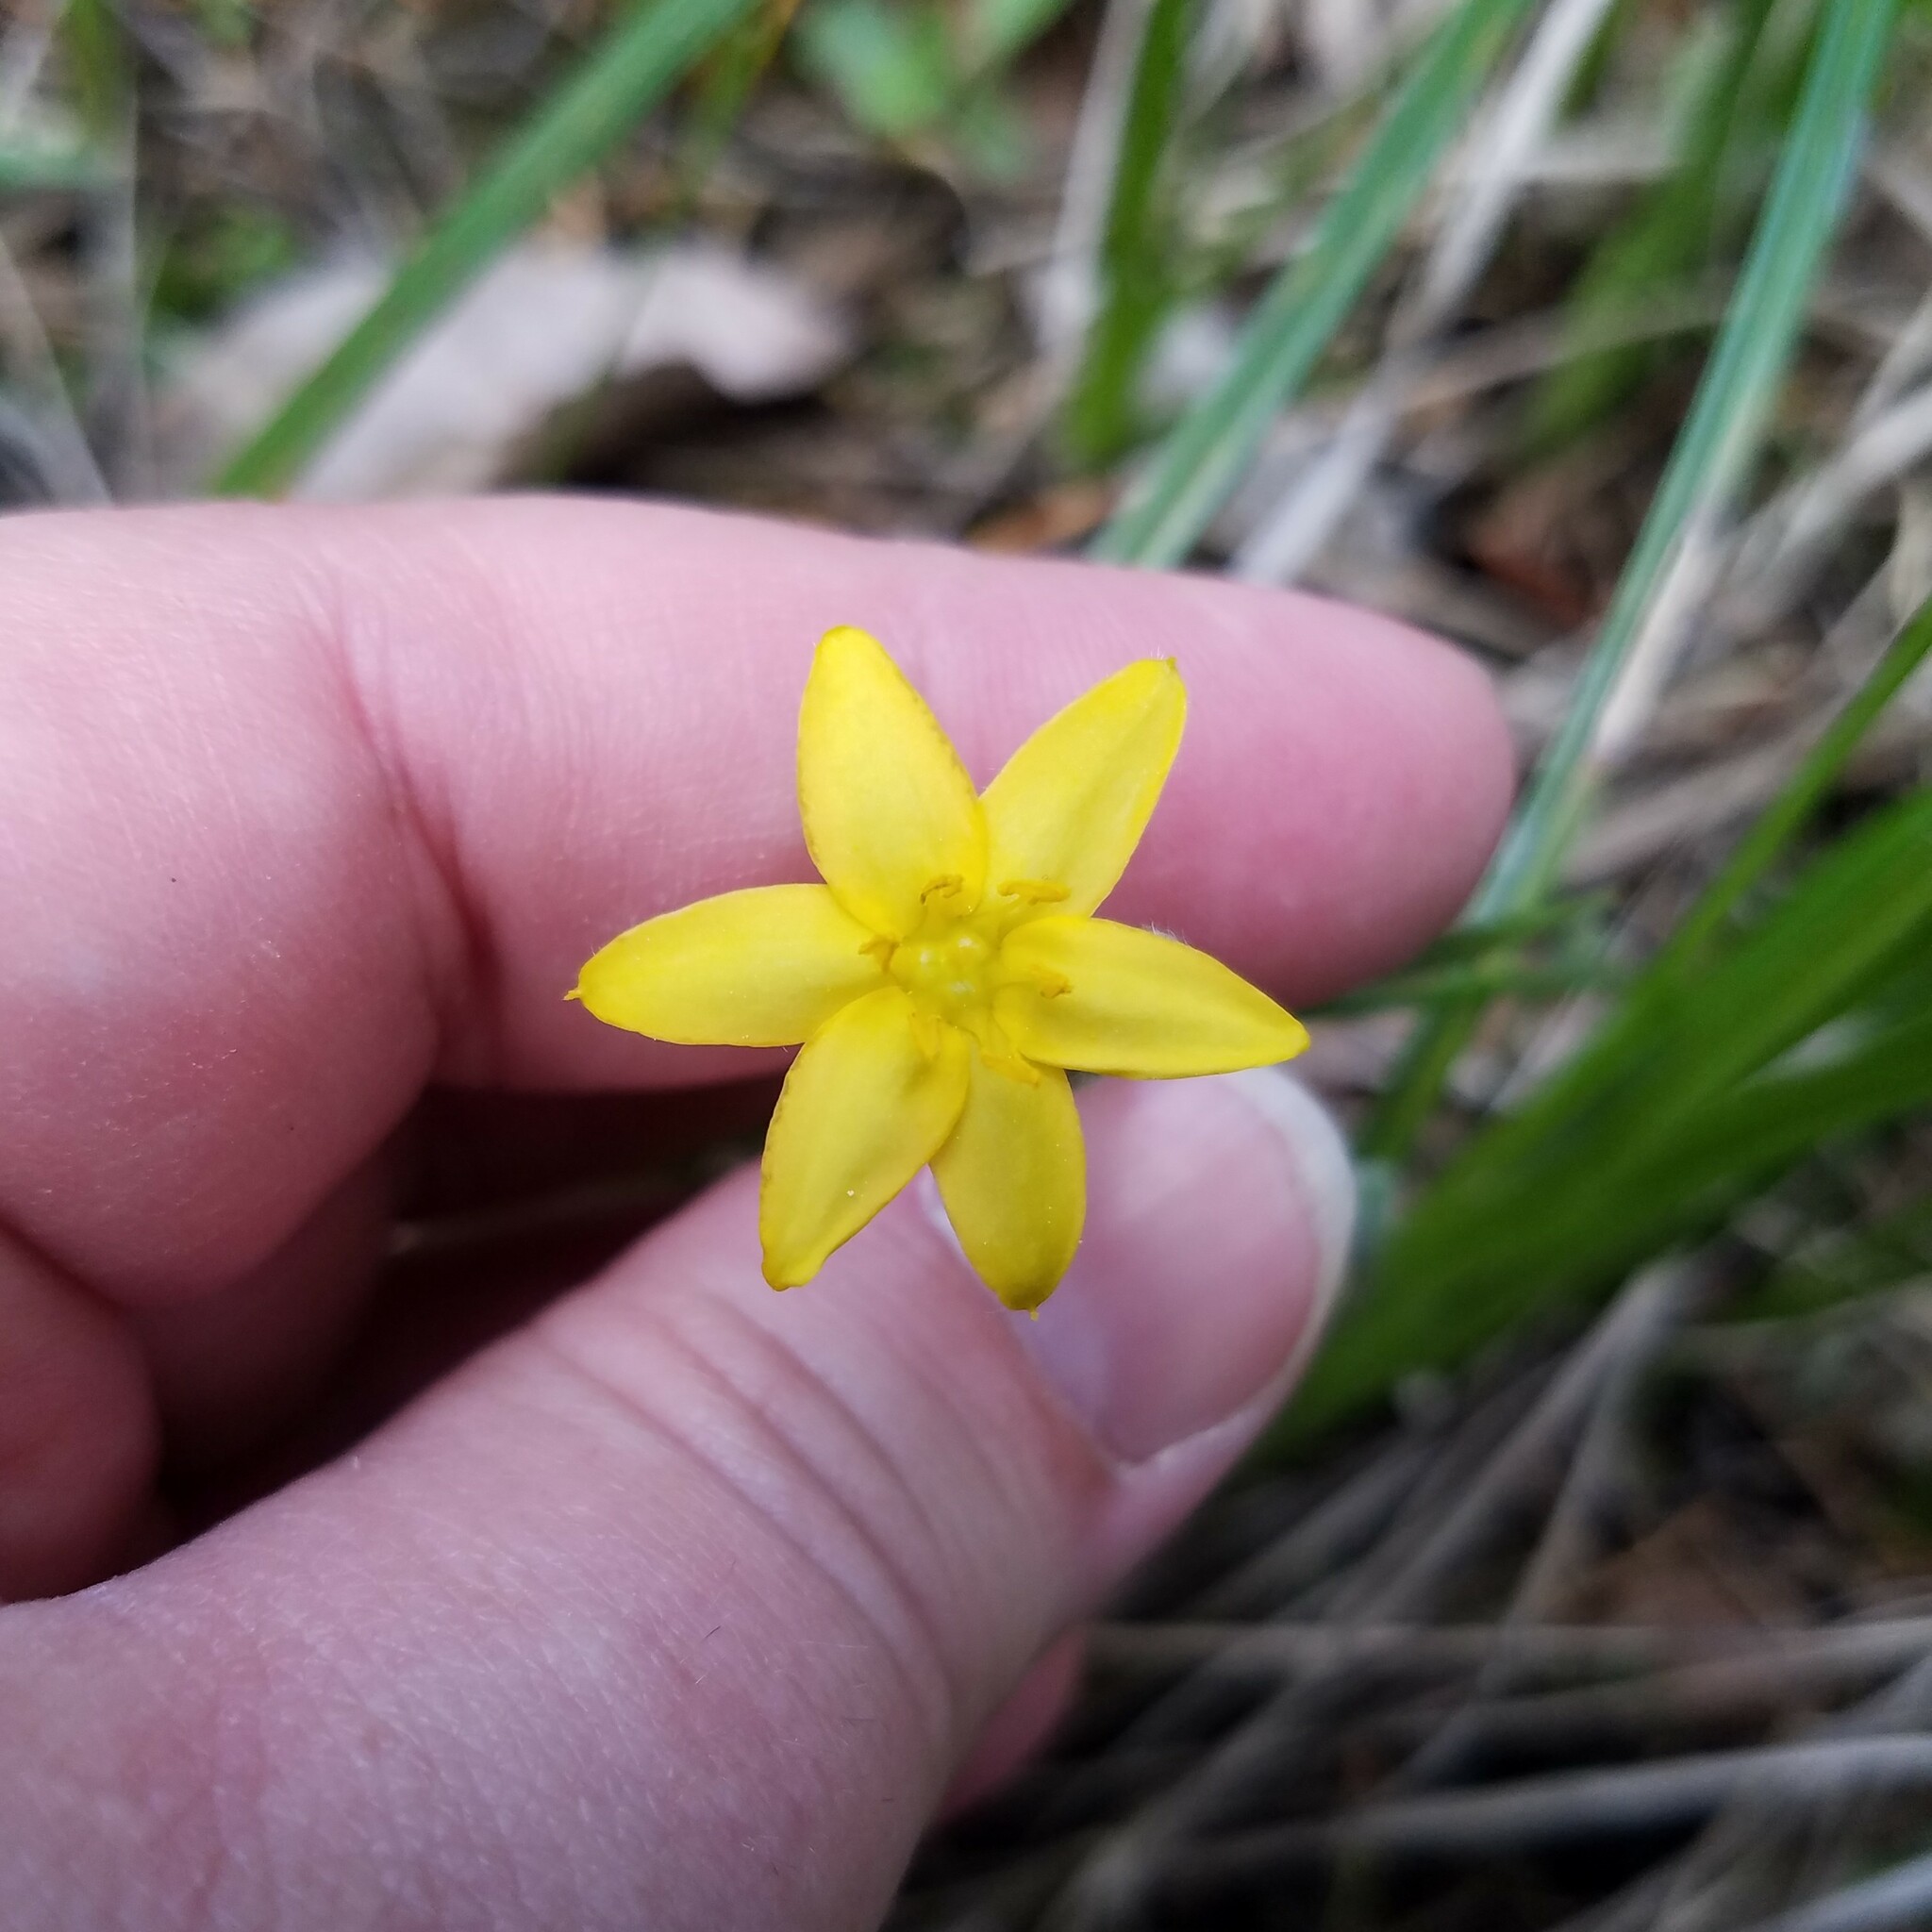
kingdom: Plantae
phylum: Tracheophyta
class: Liliopsida
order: Asparagales
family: Hypoxidaceae
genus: Hypoxis
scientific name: Hypoxis hirsuta
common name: Common goldstar
